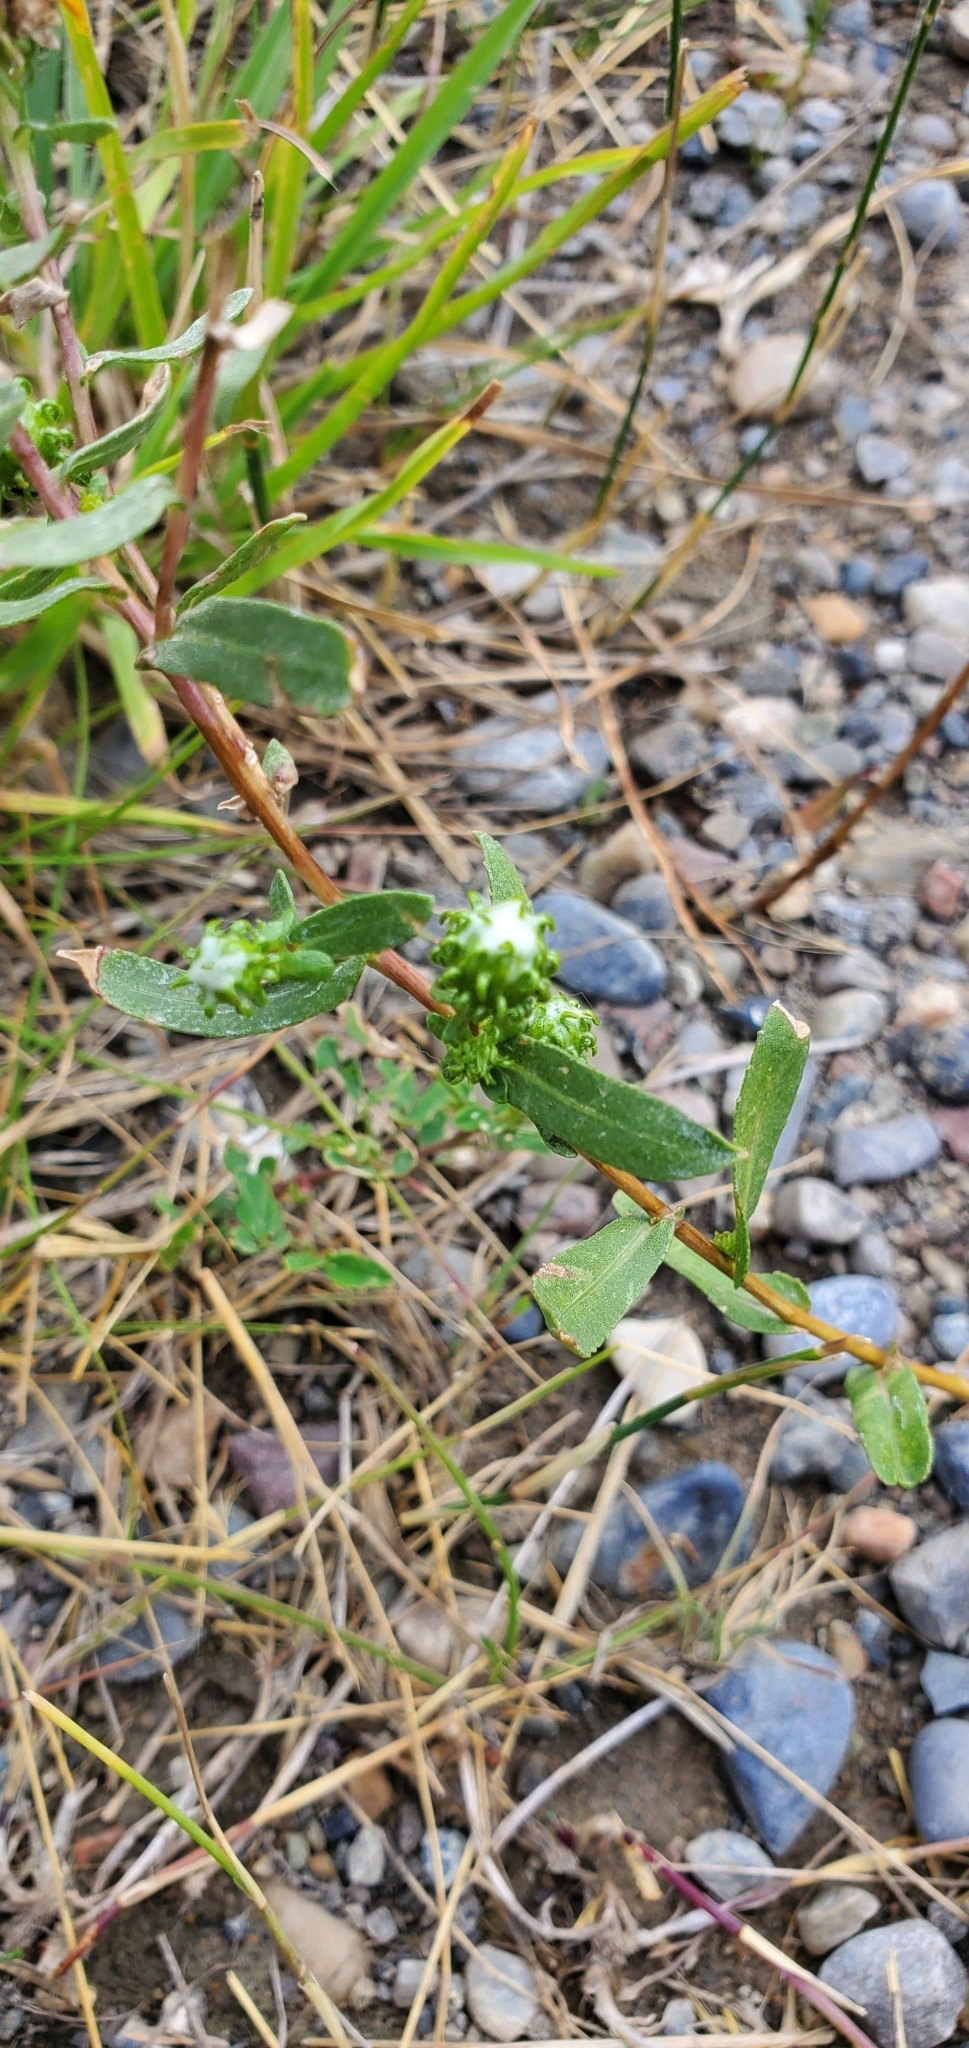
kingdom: Plantae
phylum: Tracheophyta
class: Magnoliopsida
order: Asterales
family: Asteraceae
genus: Grindelia
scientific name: Grindelia squarrosa
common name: Curly-cup gumweed
